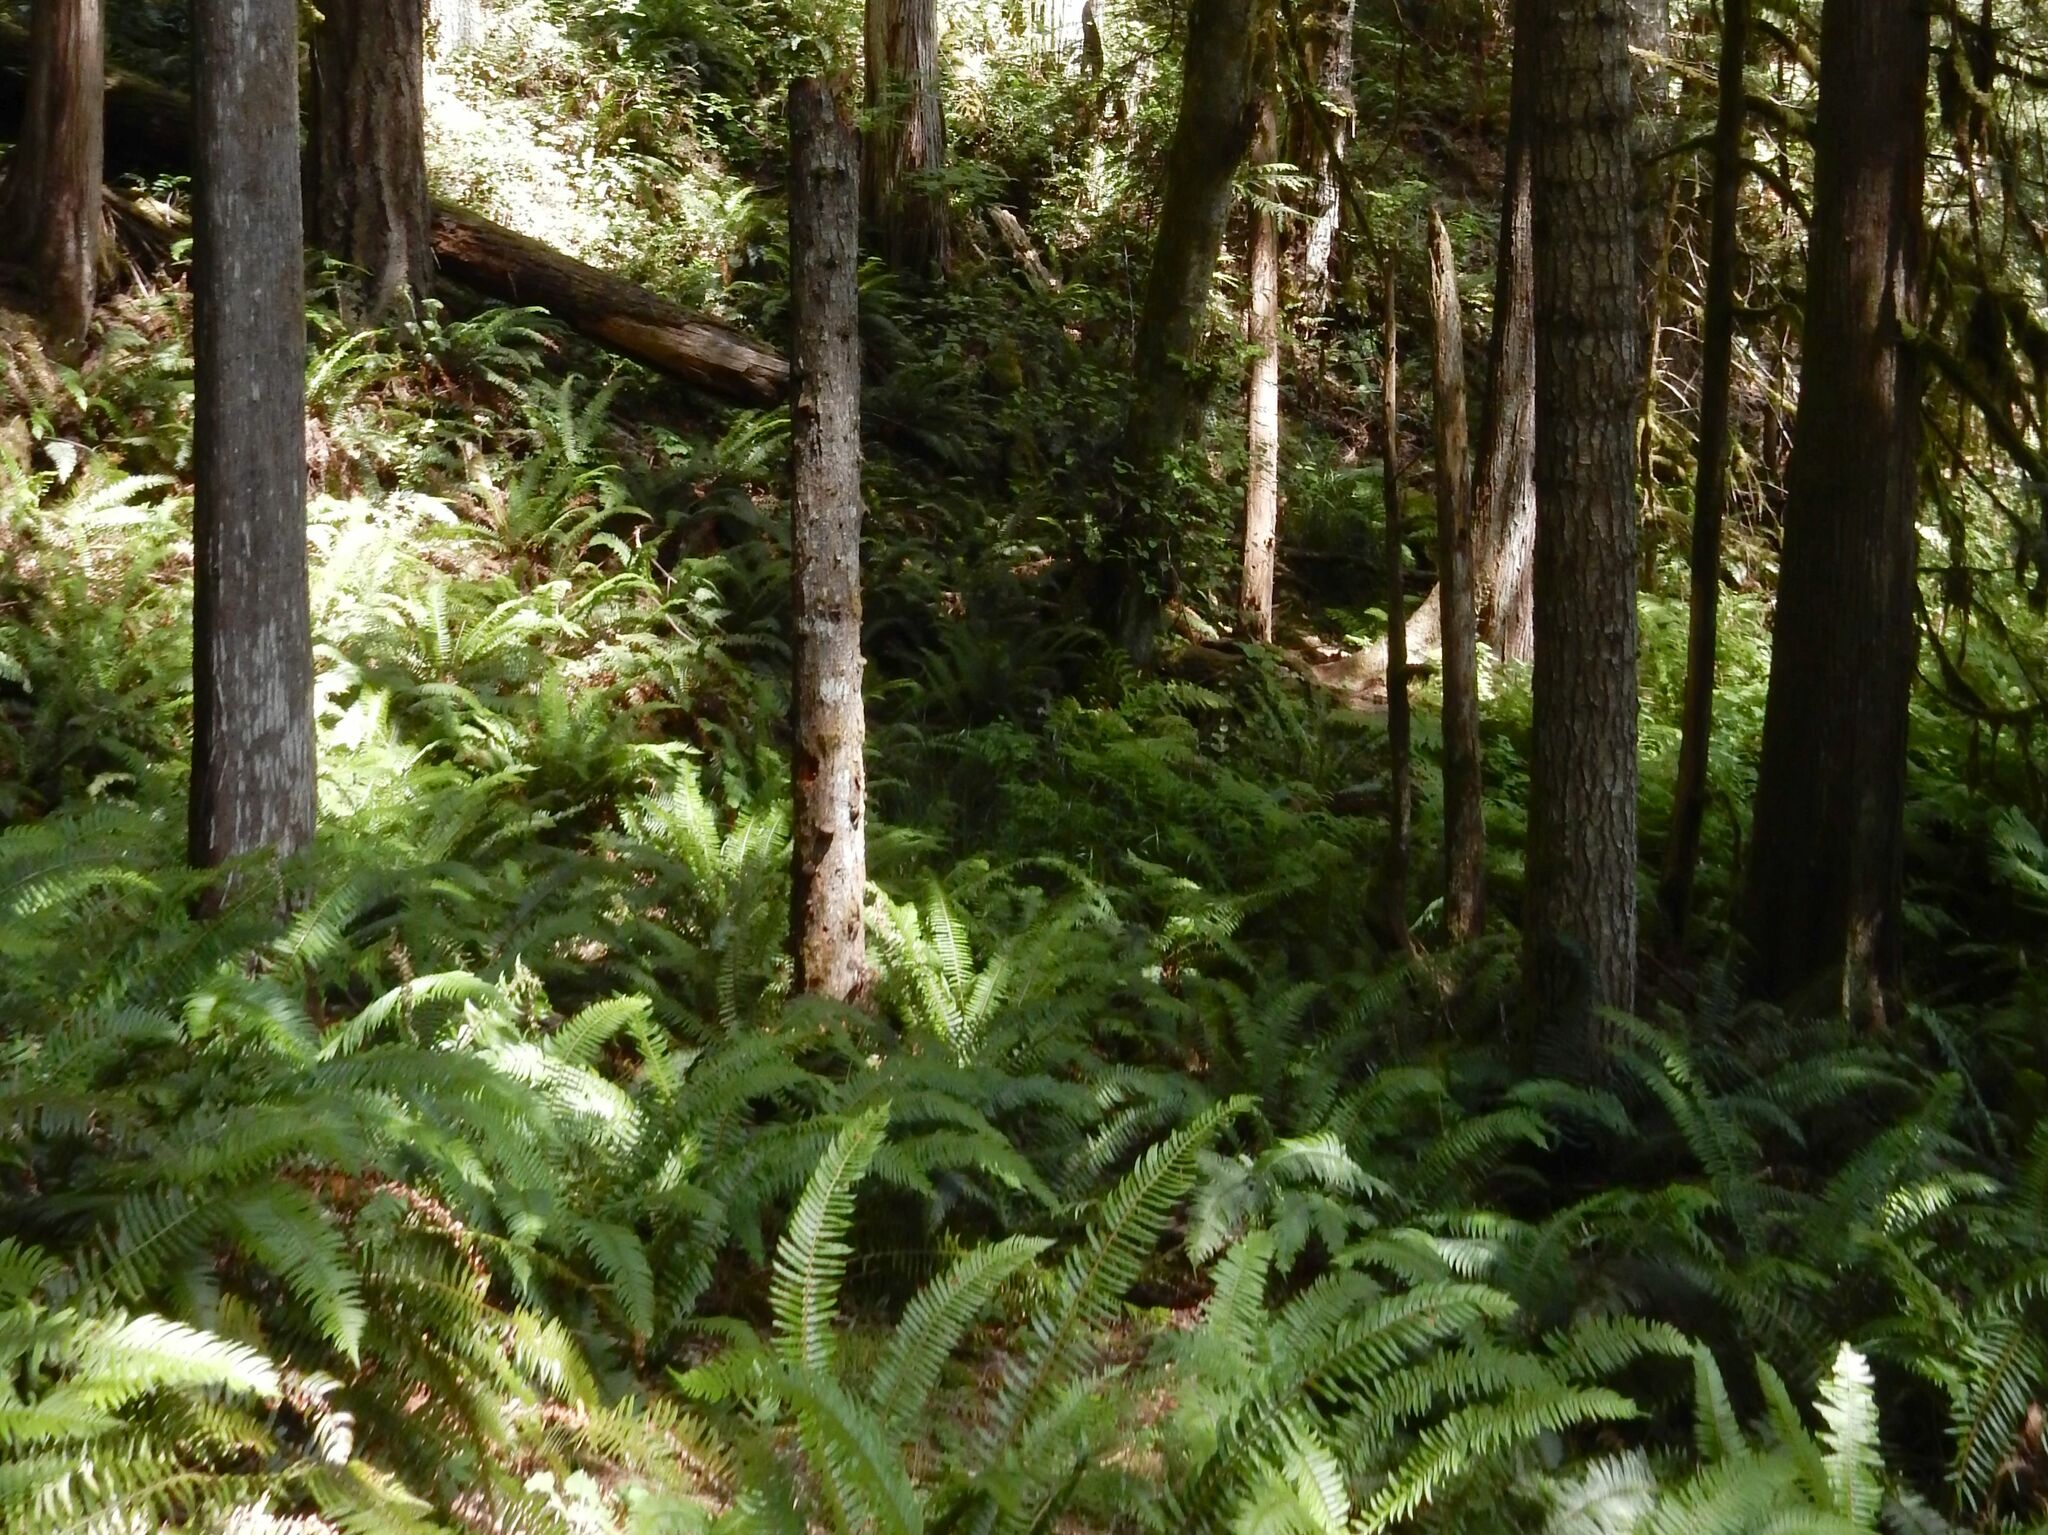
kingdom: Plantae
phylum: Tracheophyta
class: Polypodiopsida
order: Polypodiales
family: Dryopteridaceae
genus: Polystichum
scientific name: Polystichum munitum
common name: Western sword-fern
